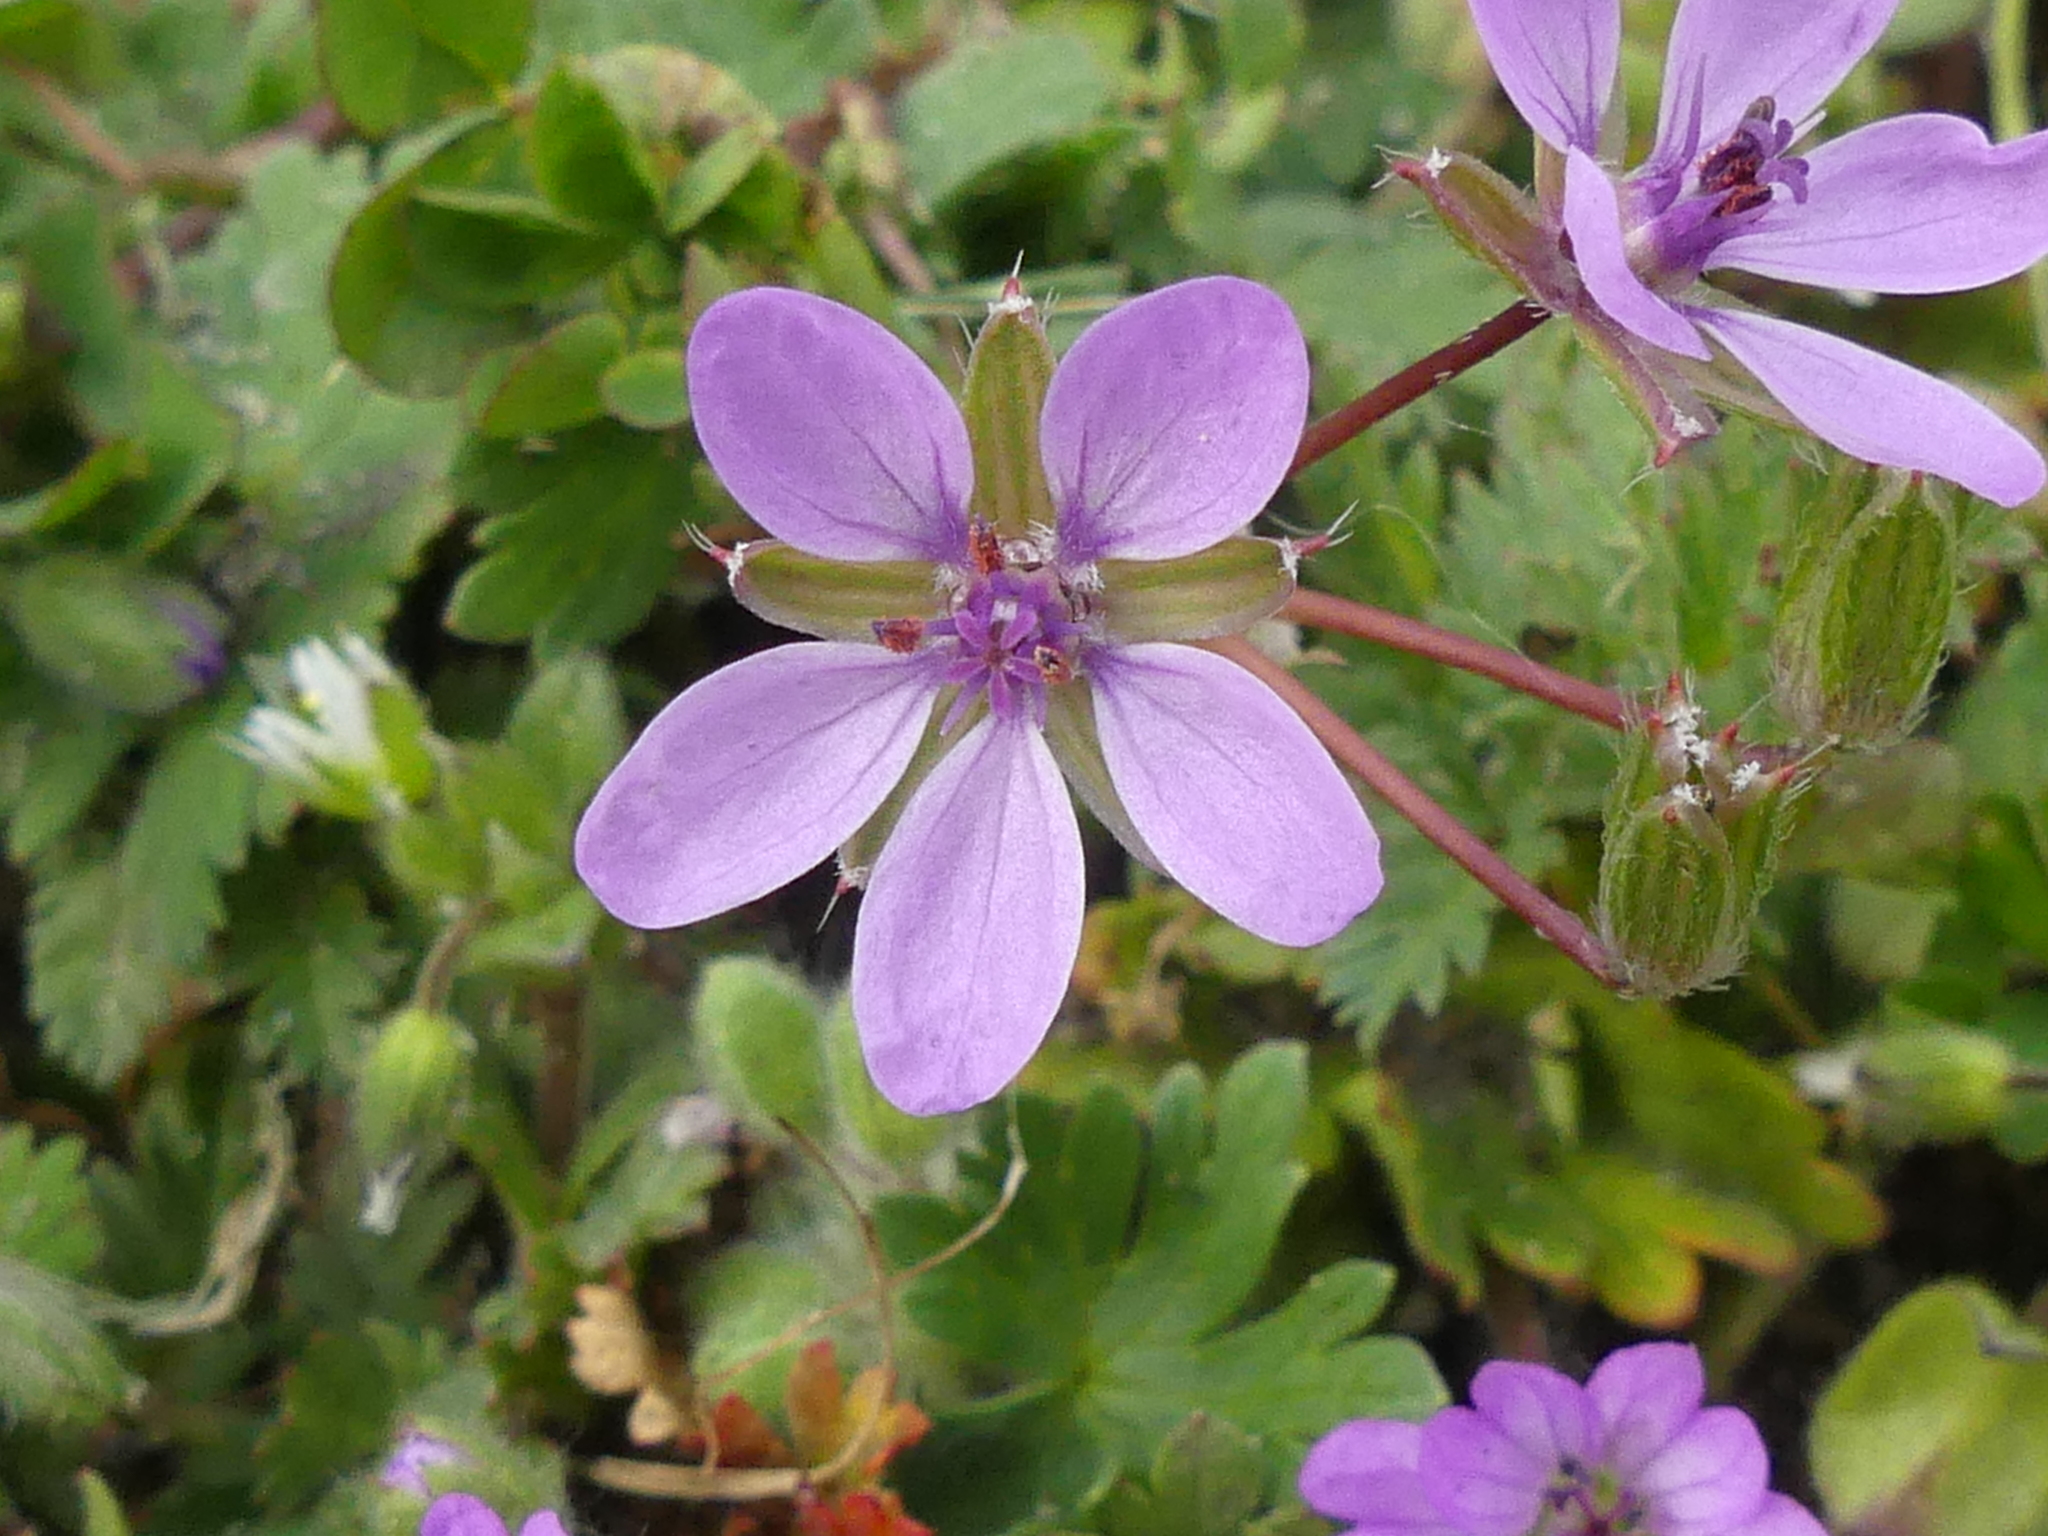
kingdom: Plantae
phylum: Tracheophyta
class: Magnoliopsida
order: Geraniales
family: Geraniaceae
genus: Erodium
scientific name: Erodium cicutarium
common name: Common stork's-bill
